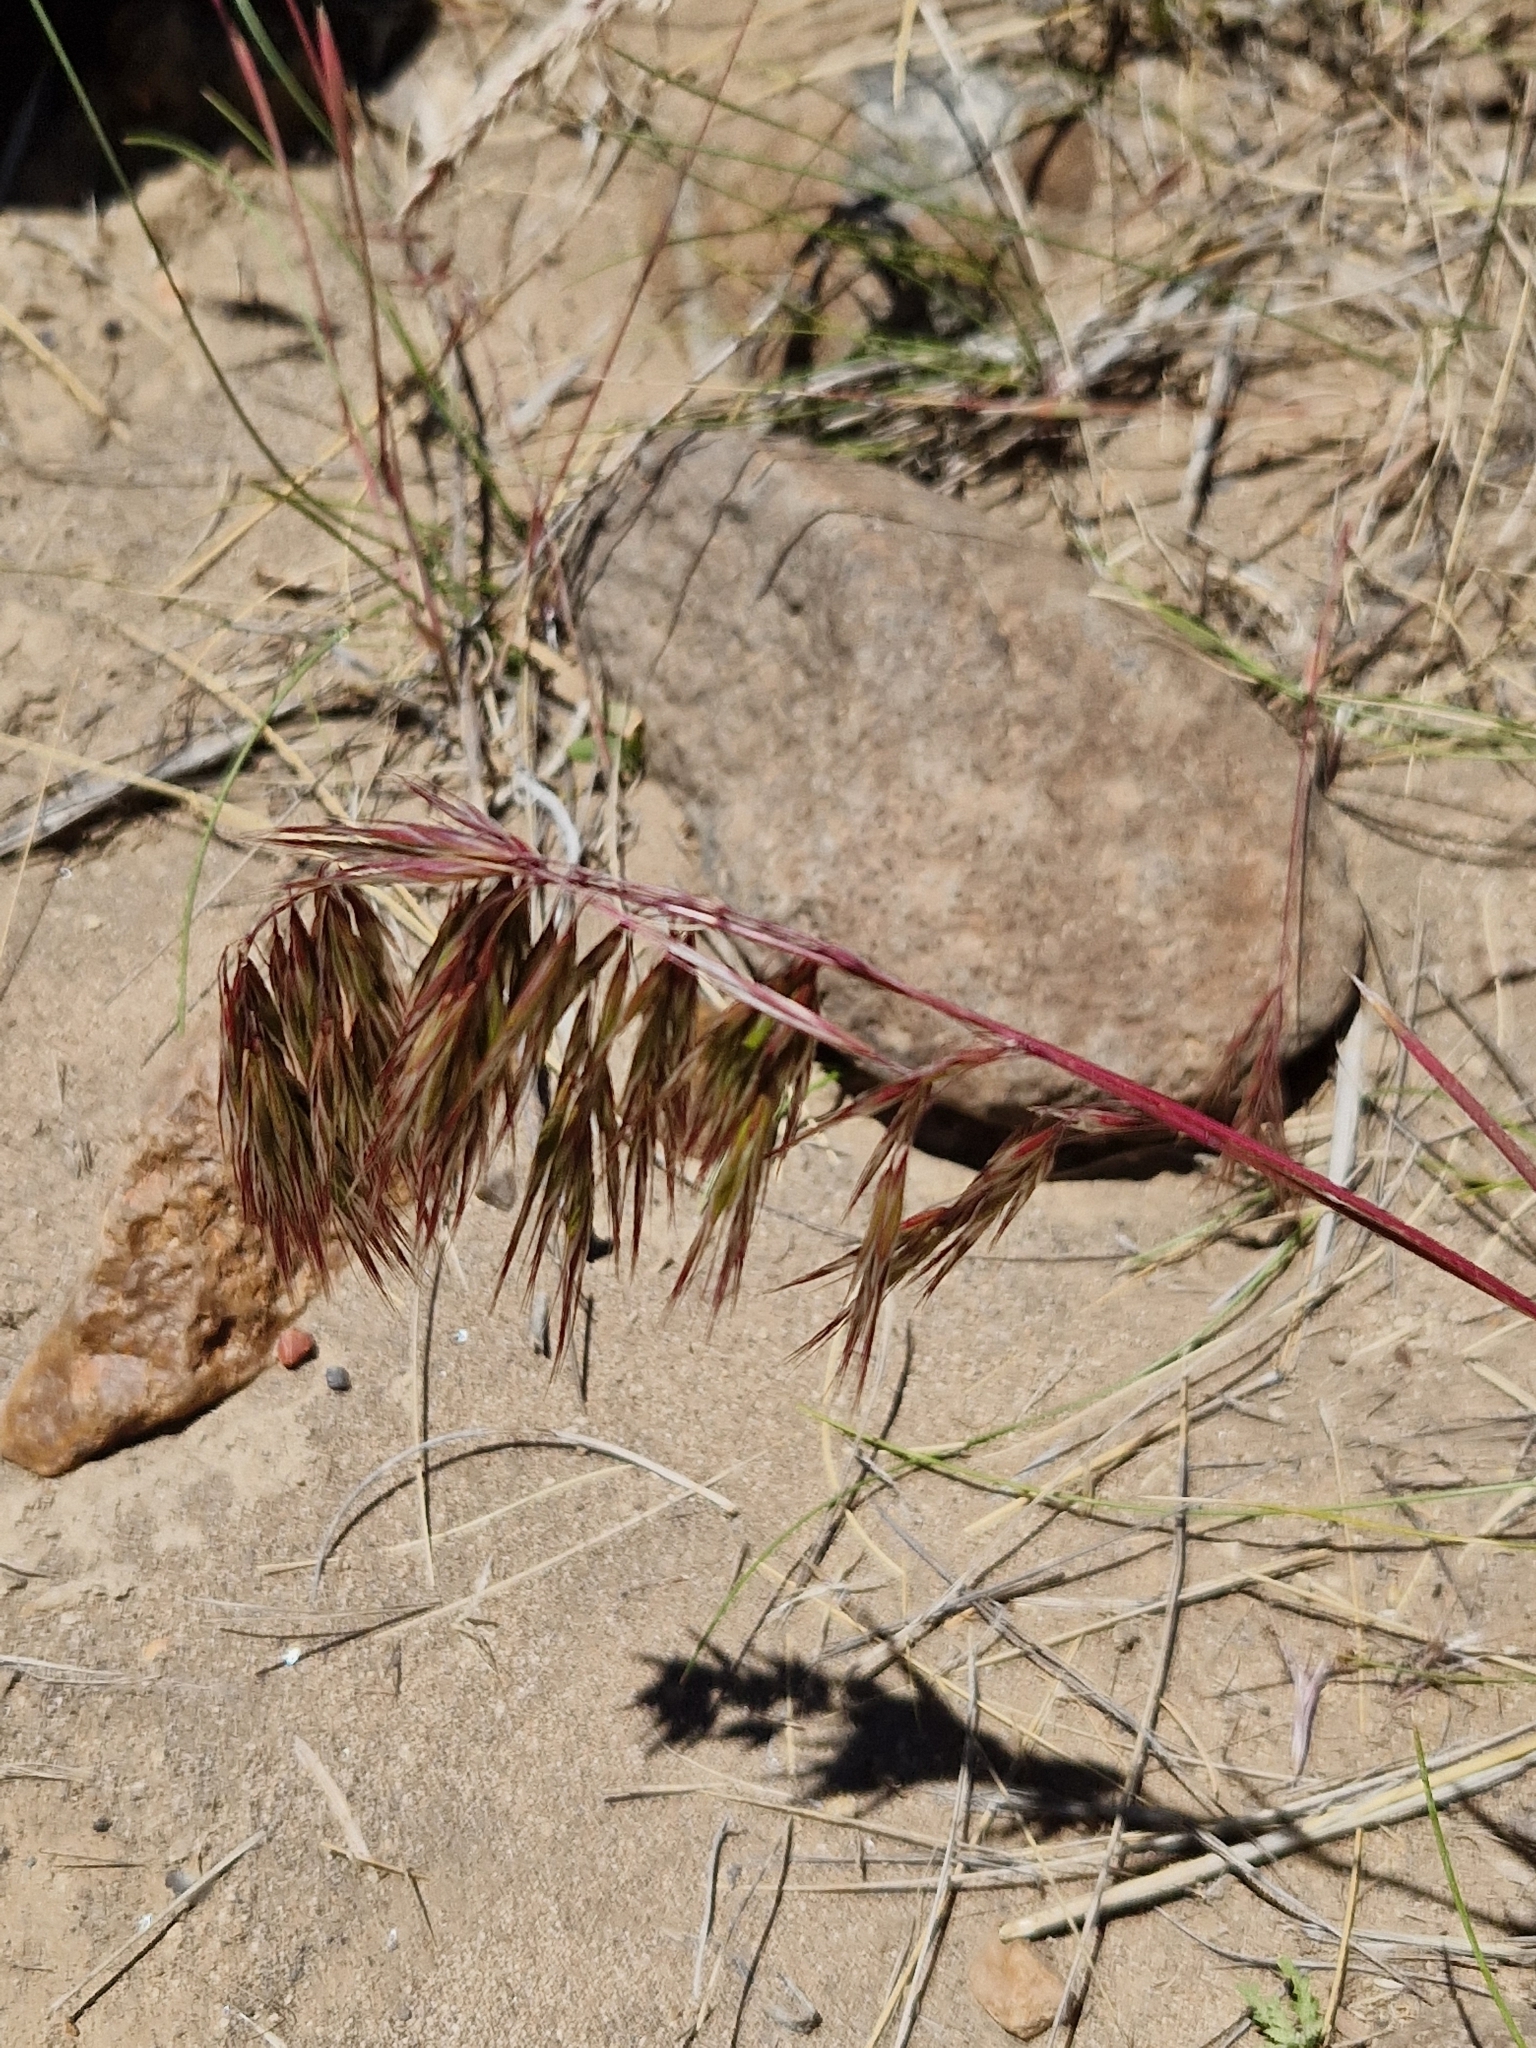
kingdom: Plantae
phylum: Tracheophyta
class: Liliopsida
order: Poales
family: Poaceae
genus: Bromus
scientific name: Bromus tectorum
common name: Cheatgrass
